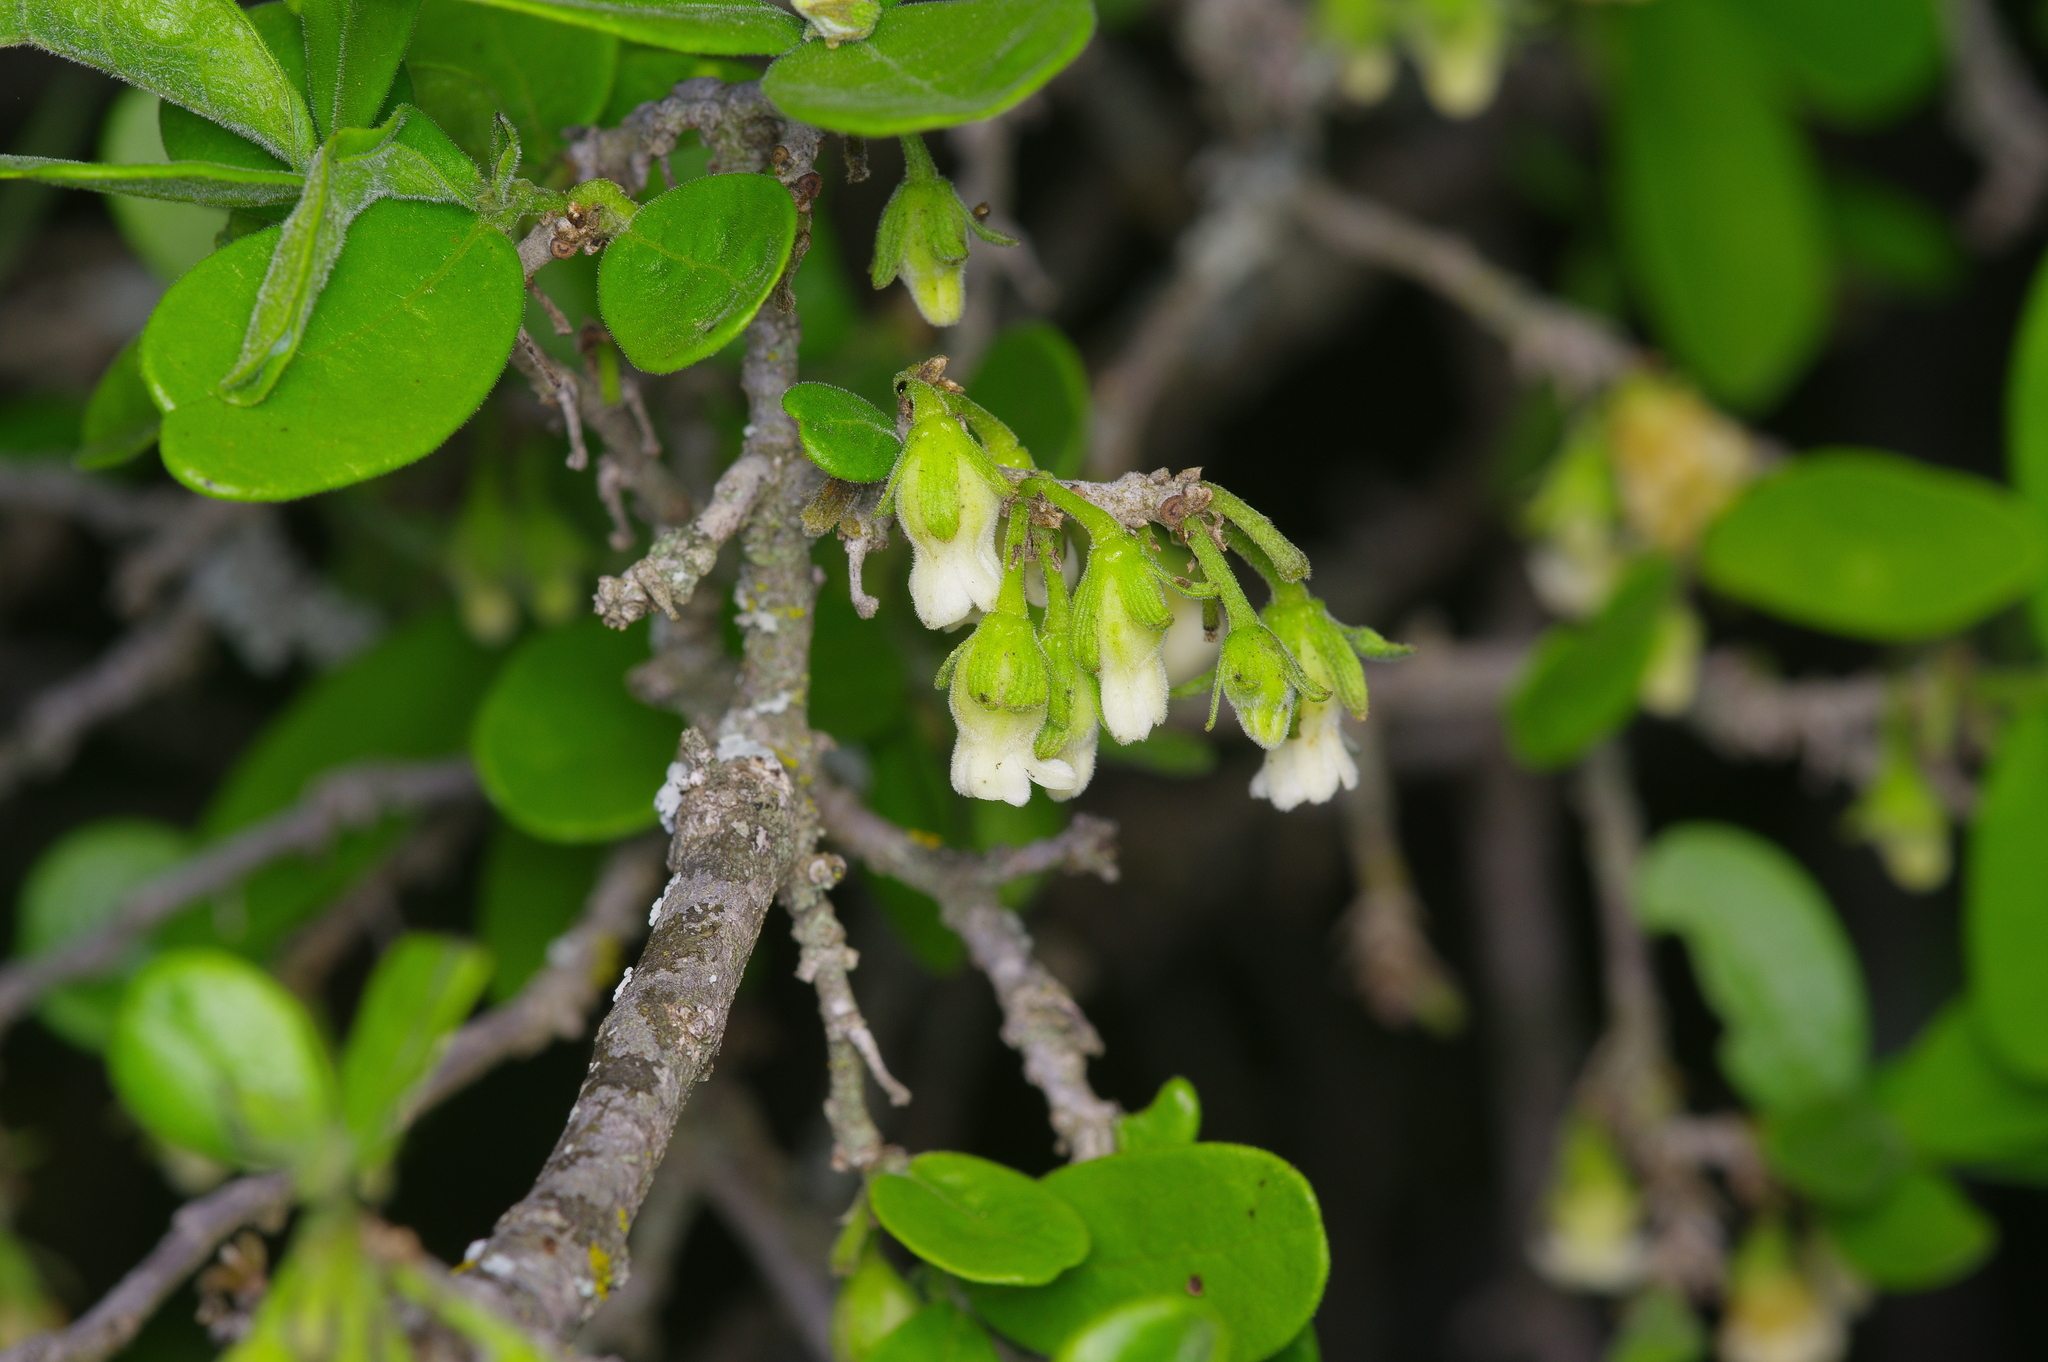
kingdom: Plantae
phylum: Tracheophyta
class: Magnoliopsida
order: Ericales
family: Ebenaceae
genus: Diospyros
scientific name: Diospyros texana
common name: Texas persimmon
